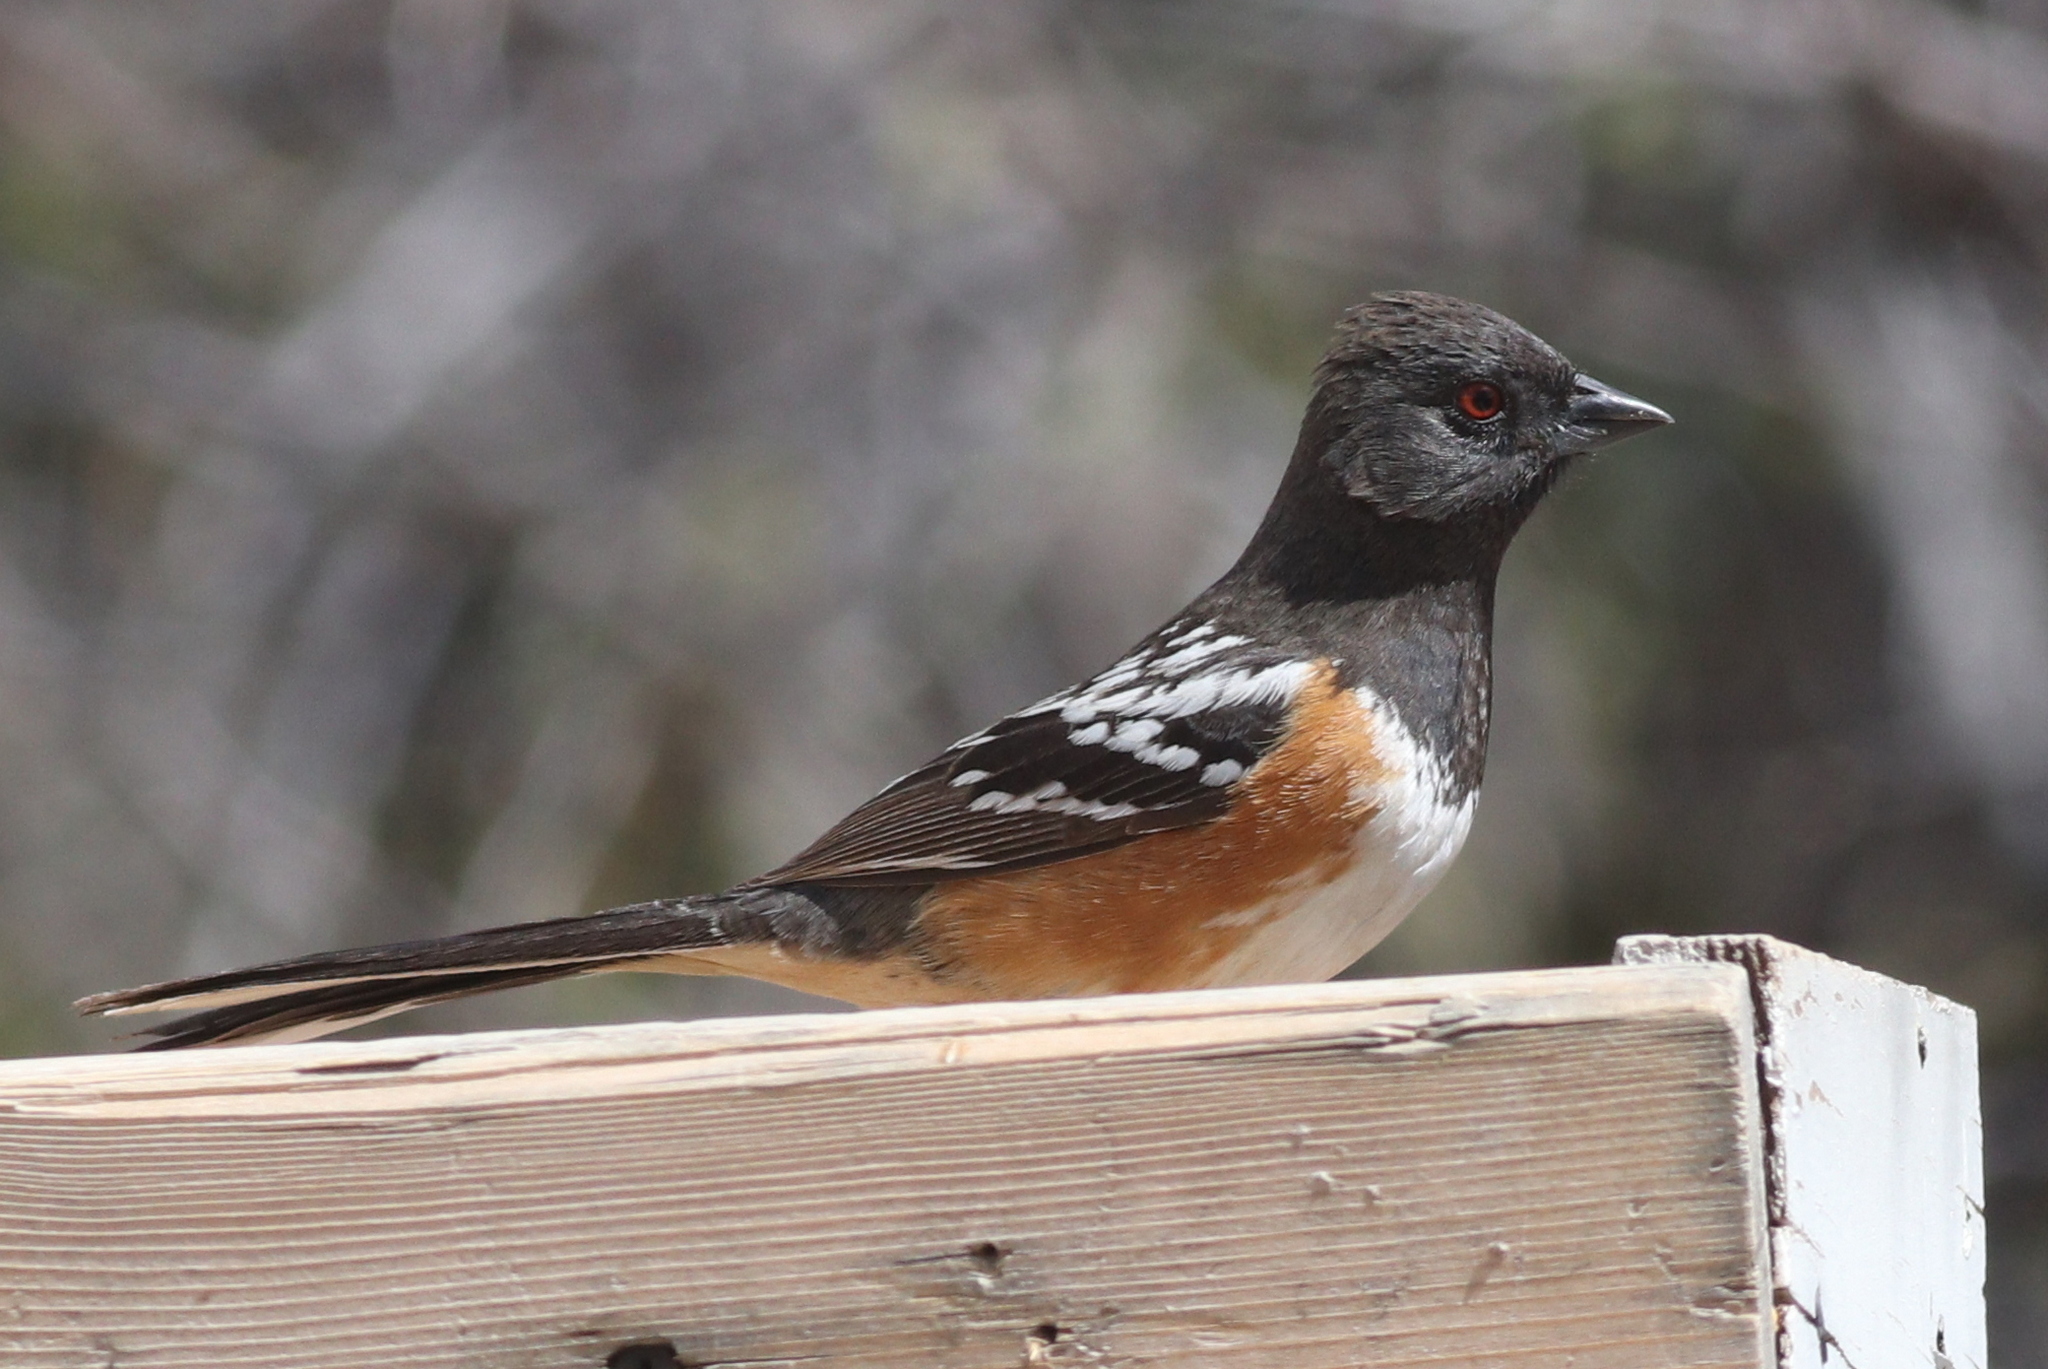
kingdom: Animalia
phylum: Chordata
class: Aves
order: Passeriformes
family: Passerellidae
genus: Pipilo
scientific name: Pipilo maculatus
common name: Spotted towhee
